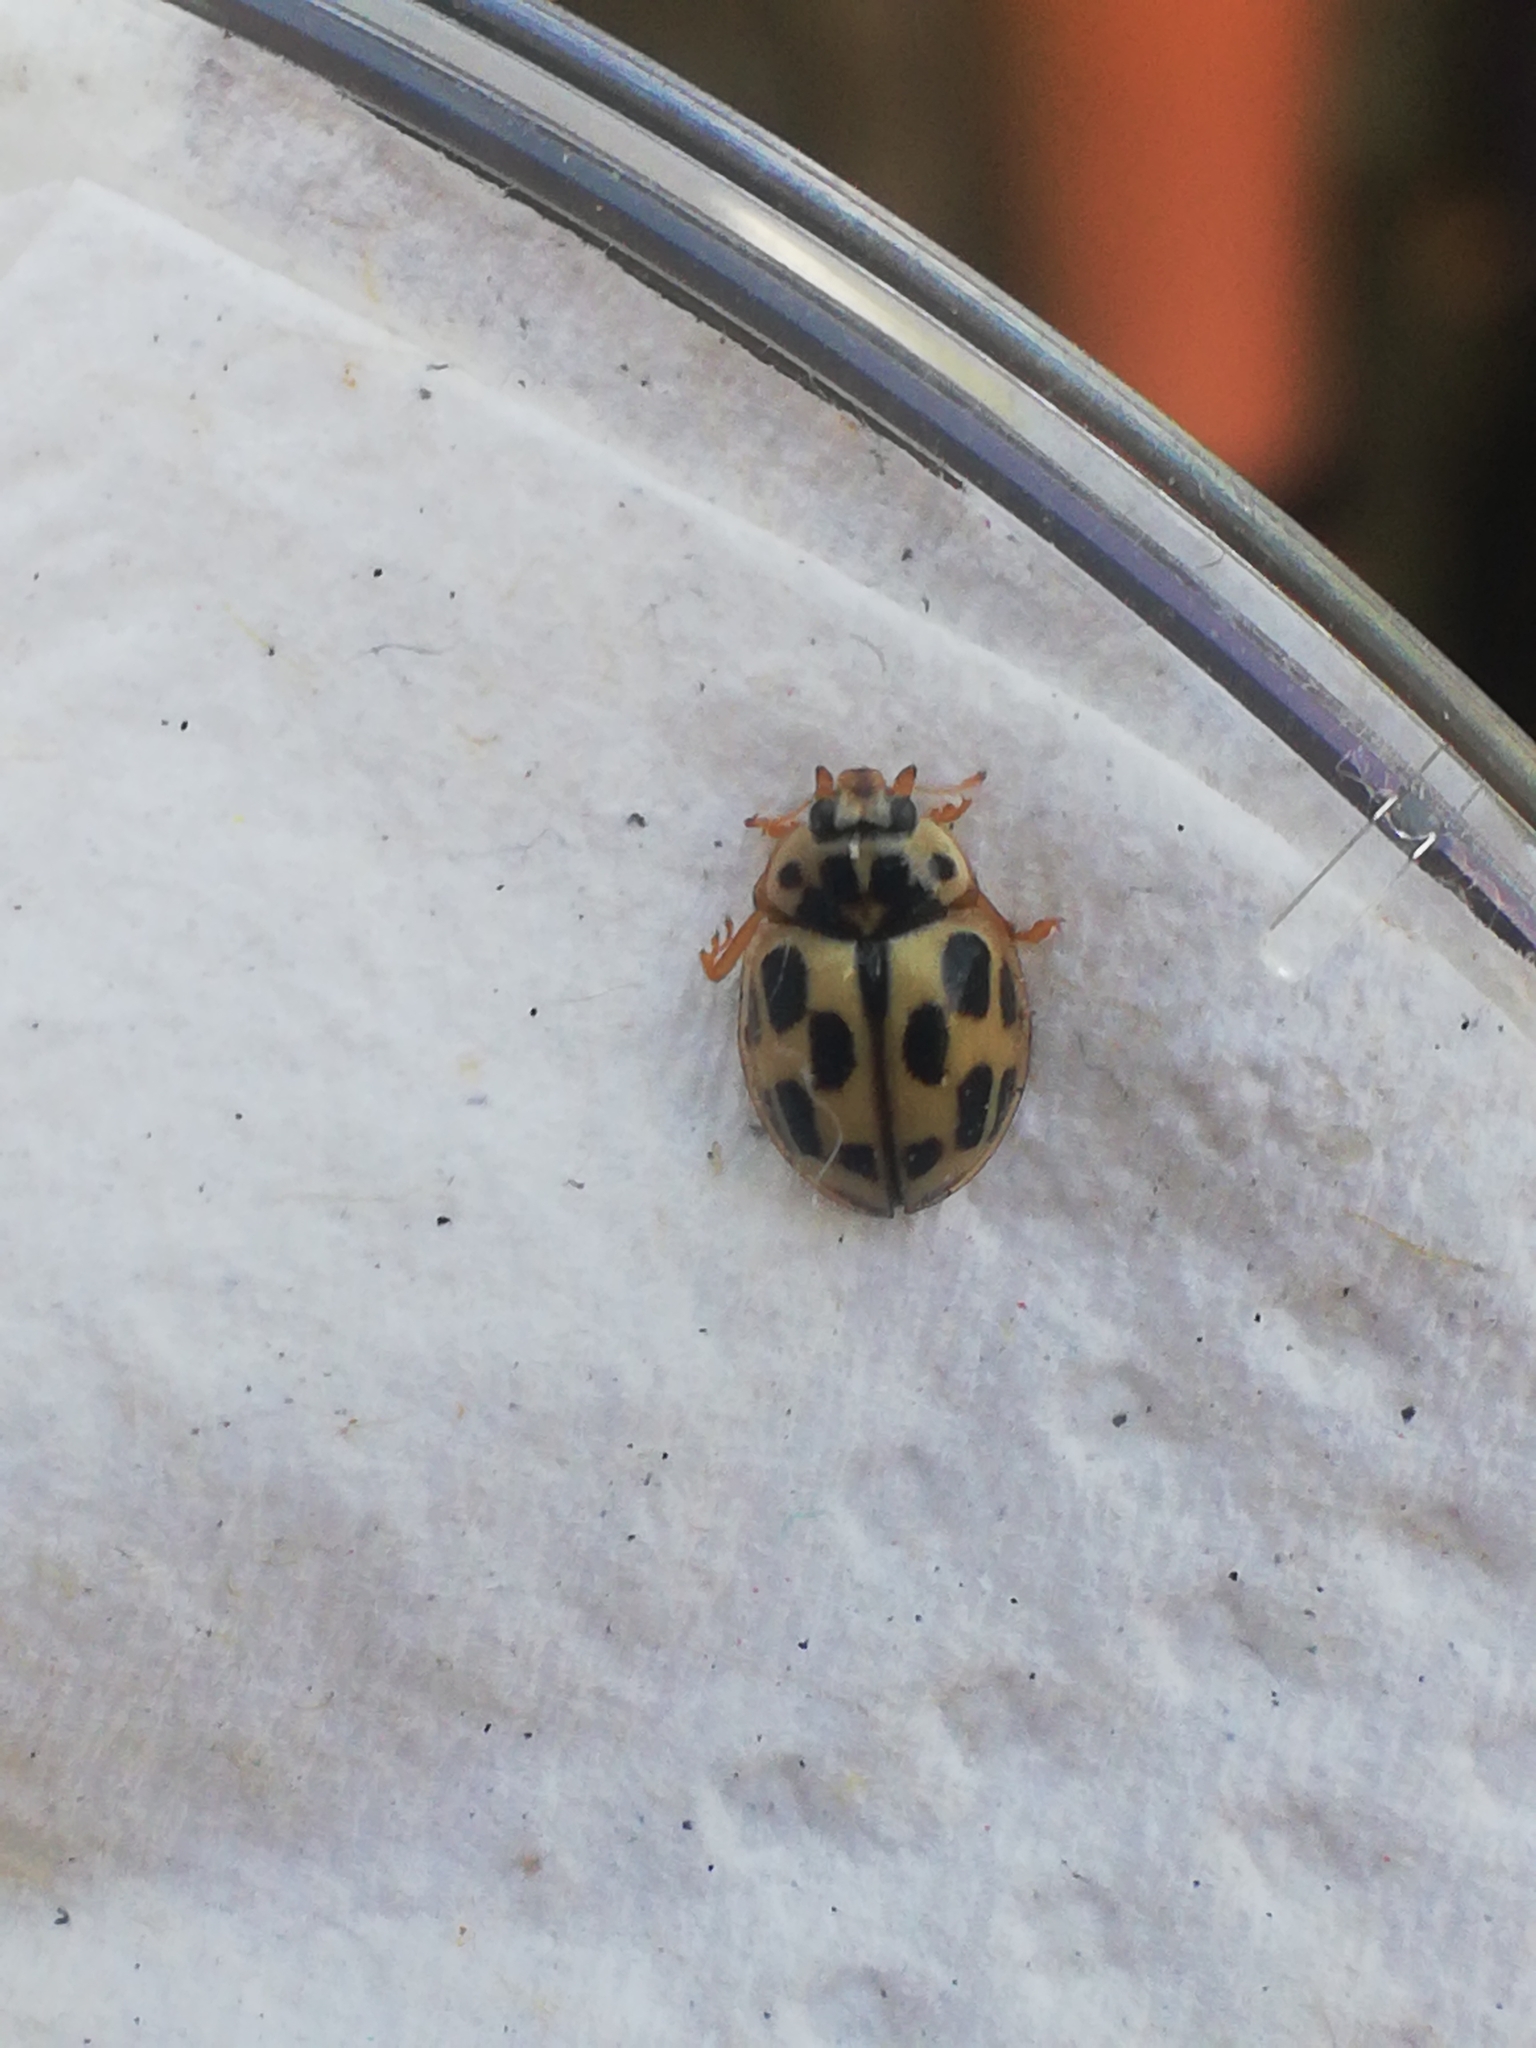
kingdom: Animalia
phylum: Arthropoda
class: Insecta
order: Coleoptera
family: Coccinellidae
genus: Propylaea
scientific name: Propylaea quatuordecimpunctata
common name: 14-spotted ladybird beetle
